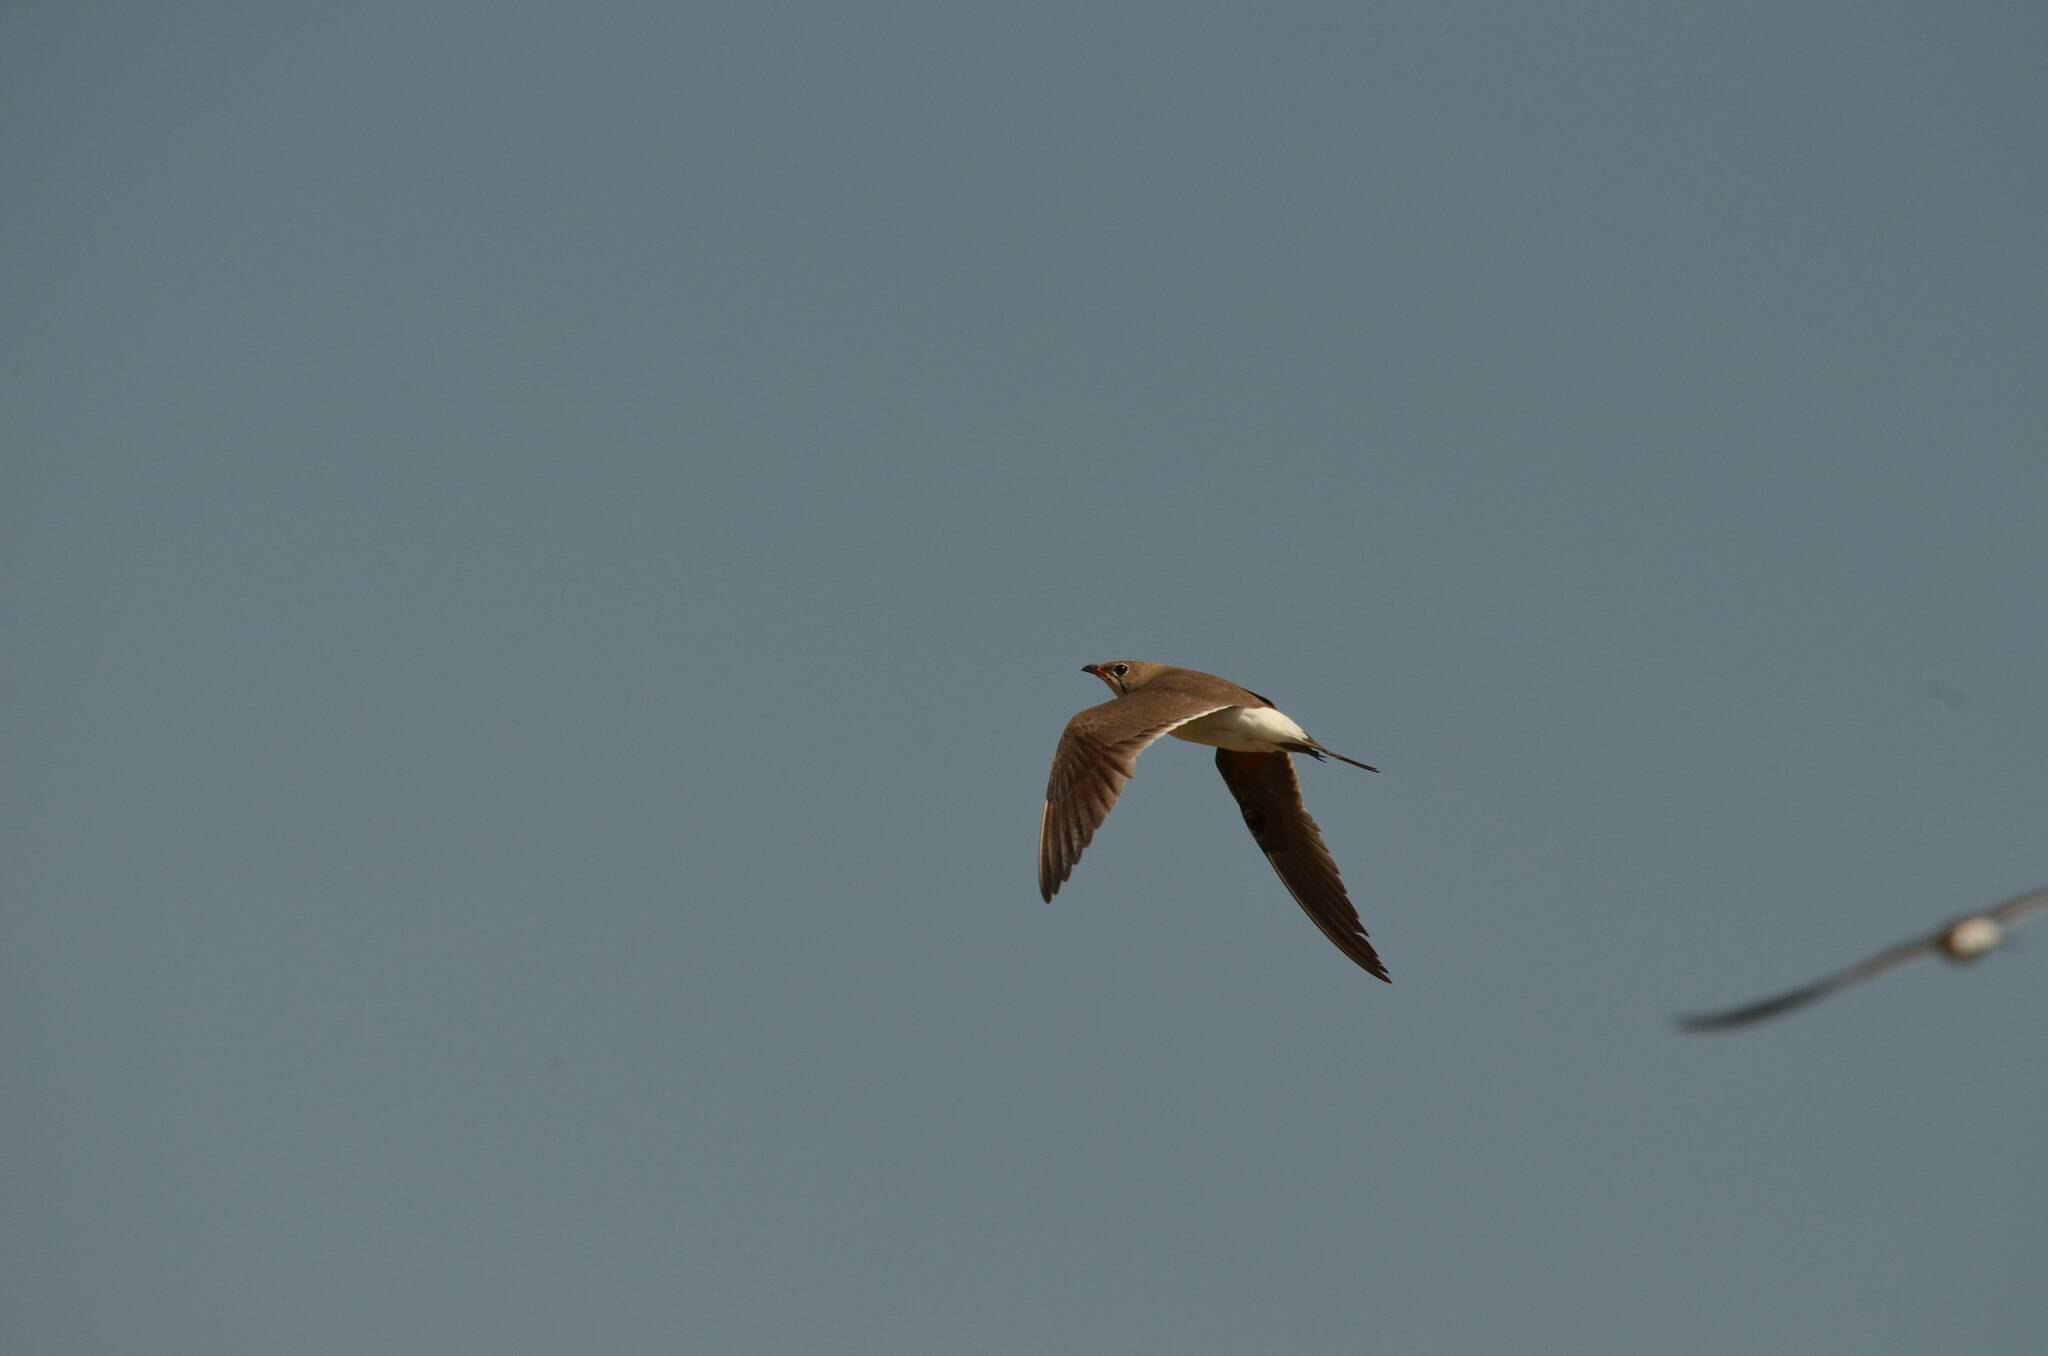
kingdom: Animalia
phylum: Chordata
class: Aves
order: Charadriiformes
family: Glareolidae
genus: Glareola
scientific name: Glareola pratincola
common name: Collared pratincole
